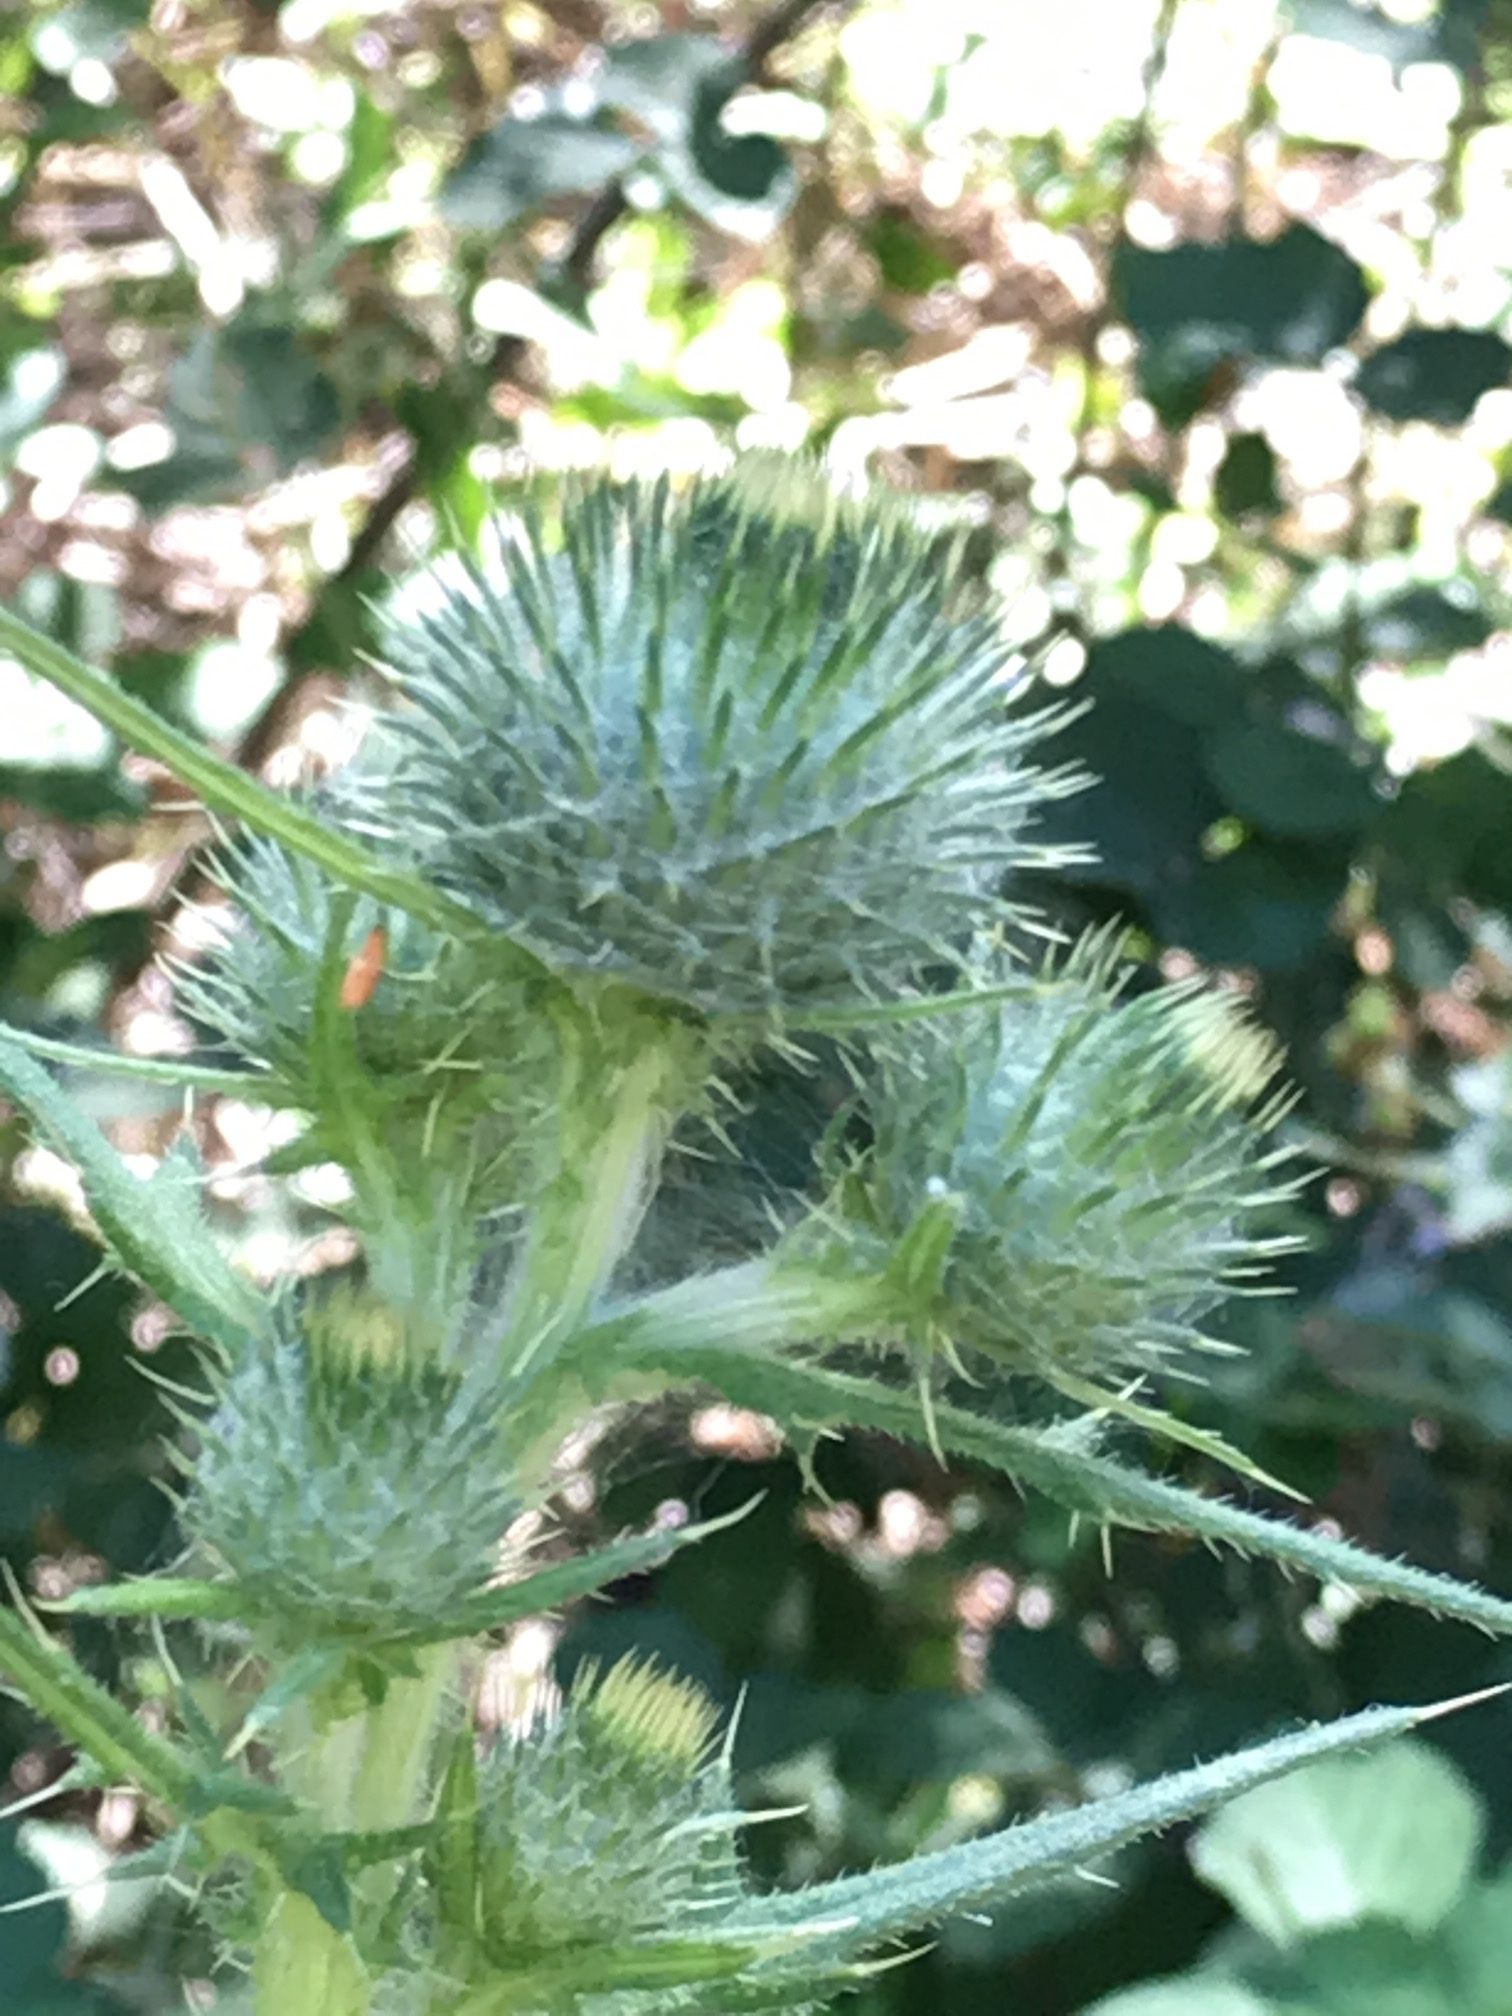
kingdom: Plantae
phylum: Tracheophyta
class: Magnoliopsida
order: Asterales
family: Asteraceae
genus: Cirsium
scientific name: Cirsium vulgare
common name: Bull thistle
